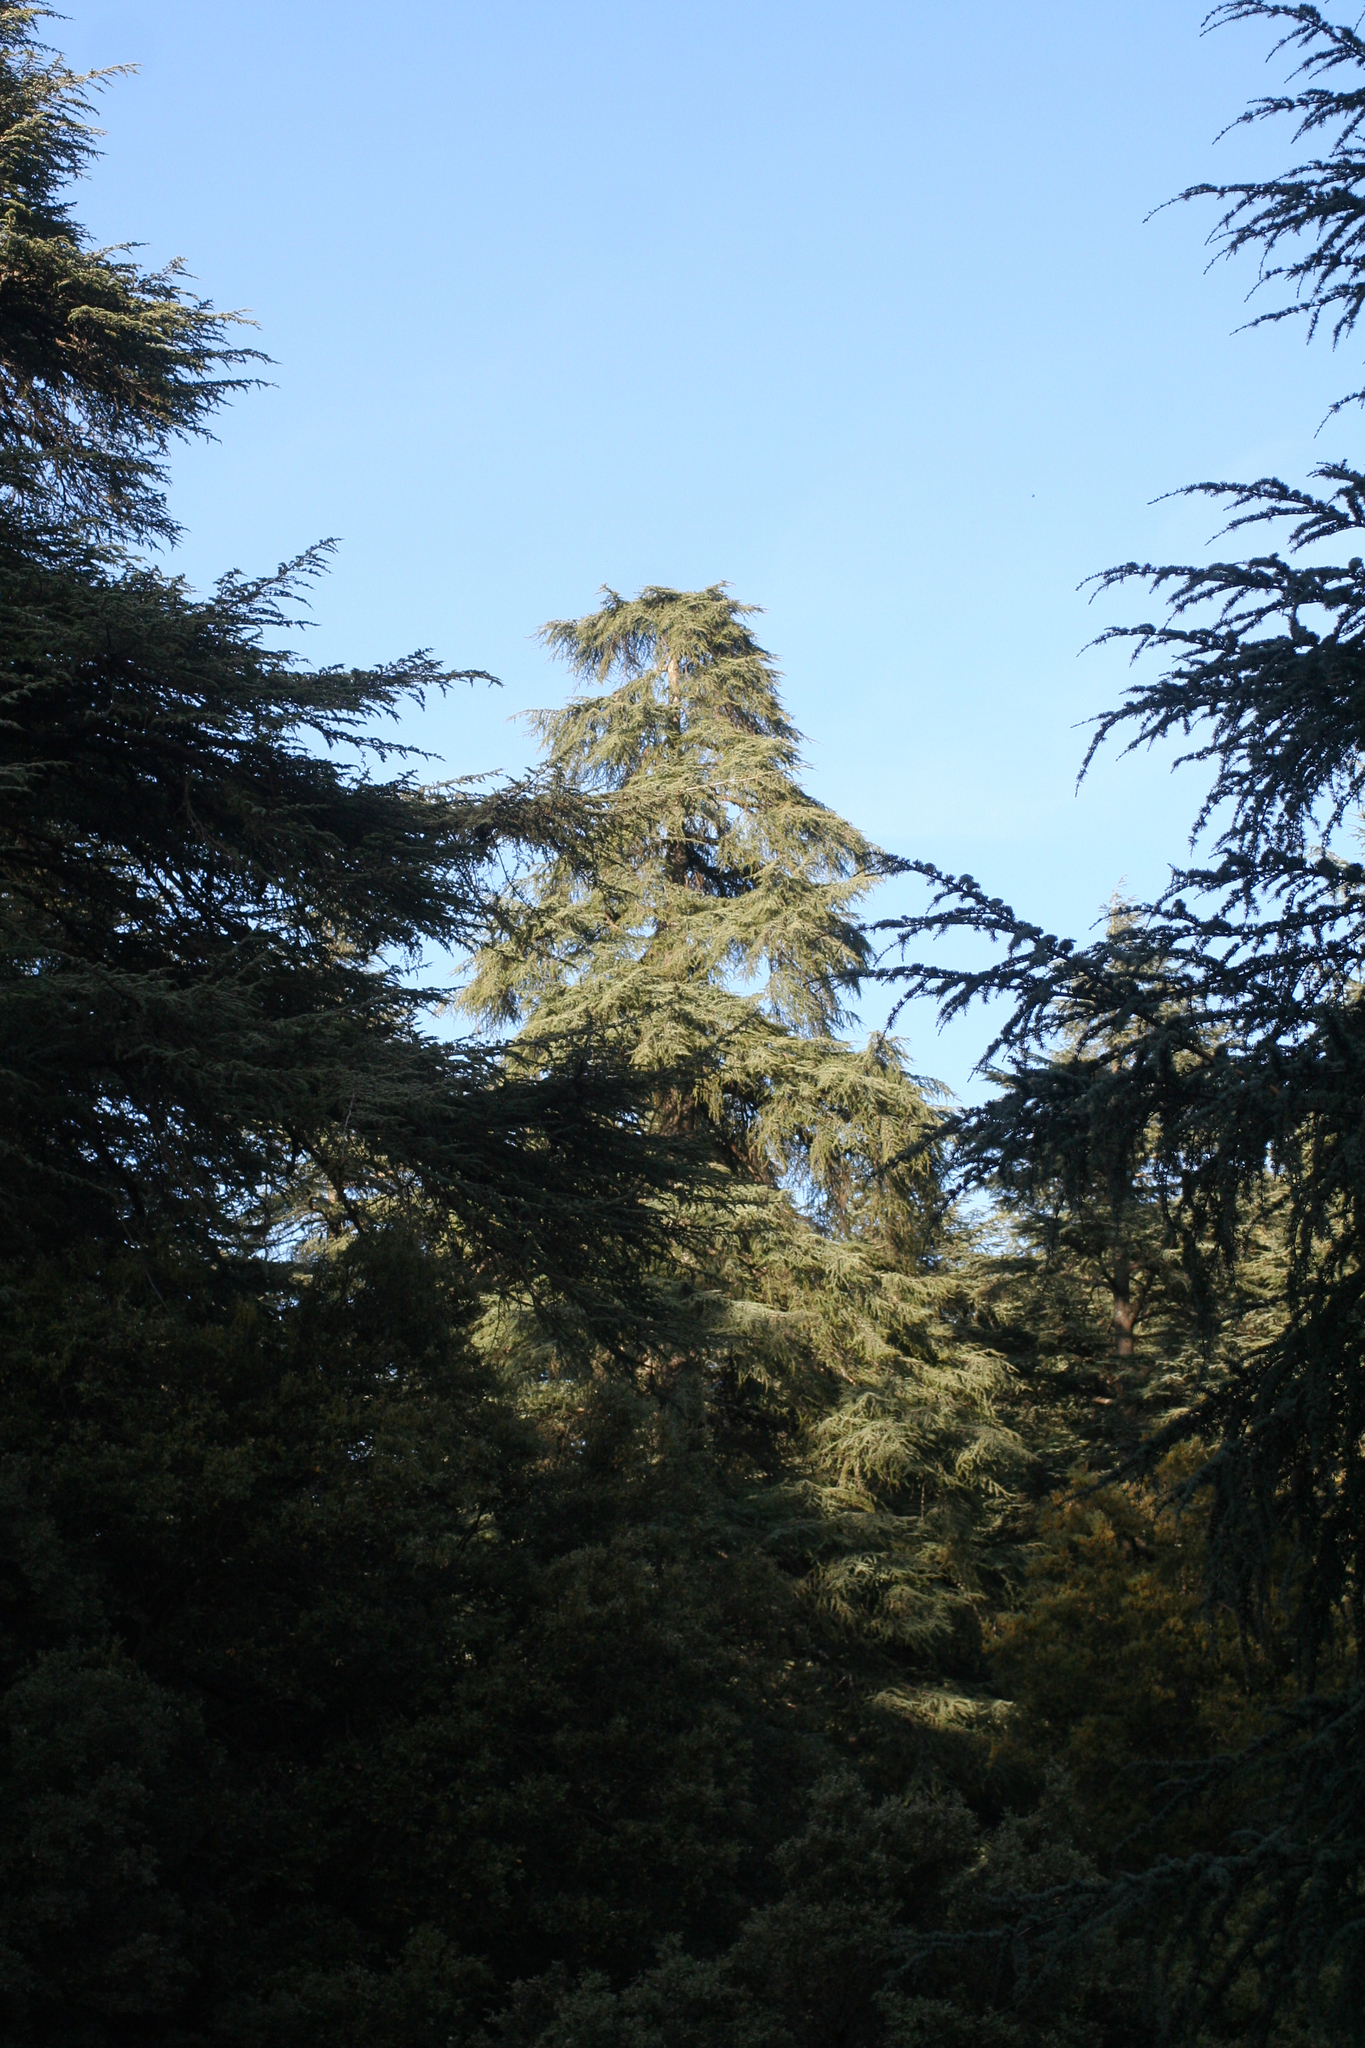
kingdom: Plantae
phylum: Tracheophyta
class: Pinopsida
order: Pinales
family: Pinaceae
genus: Cedrus
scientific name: Cedrus atlantica
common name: Atlas cedar
